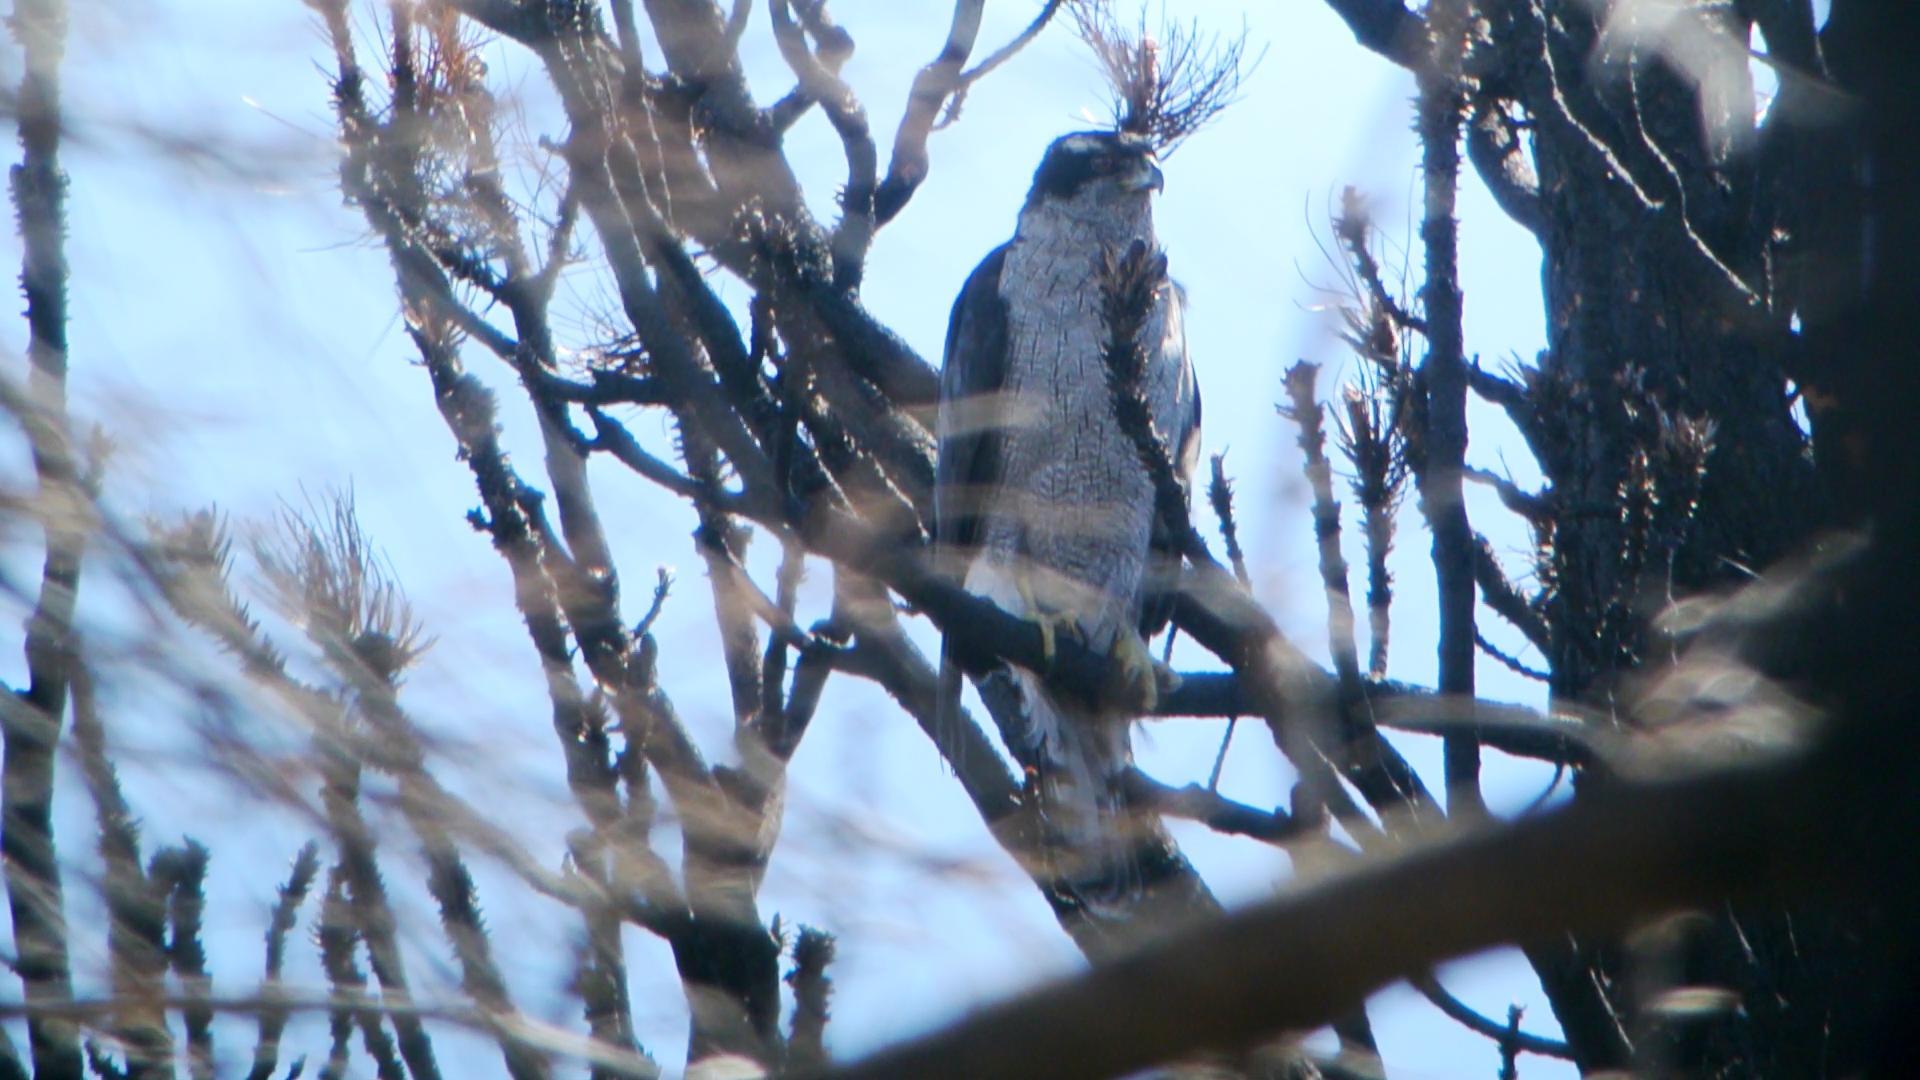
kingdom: Animalia
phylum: Chordata
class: Aves
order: Accipitriformes
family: Accipitridae
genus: Accipiter
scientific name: Accipiter gentilis
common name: Northern goshawk
